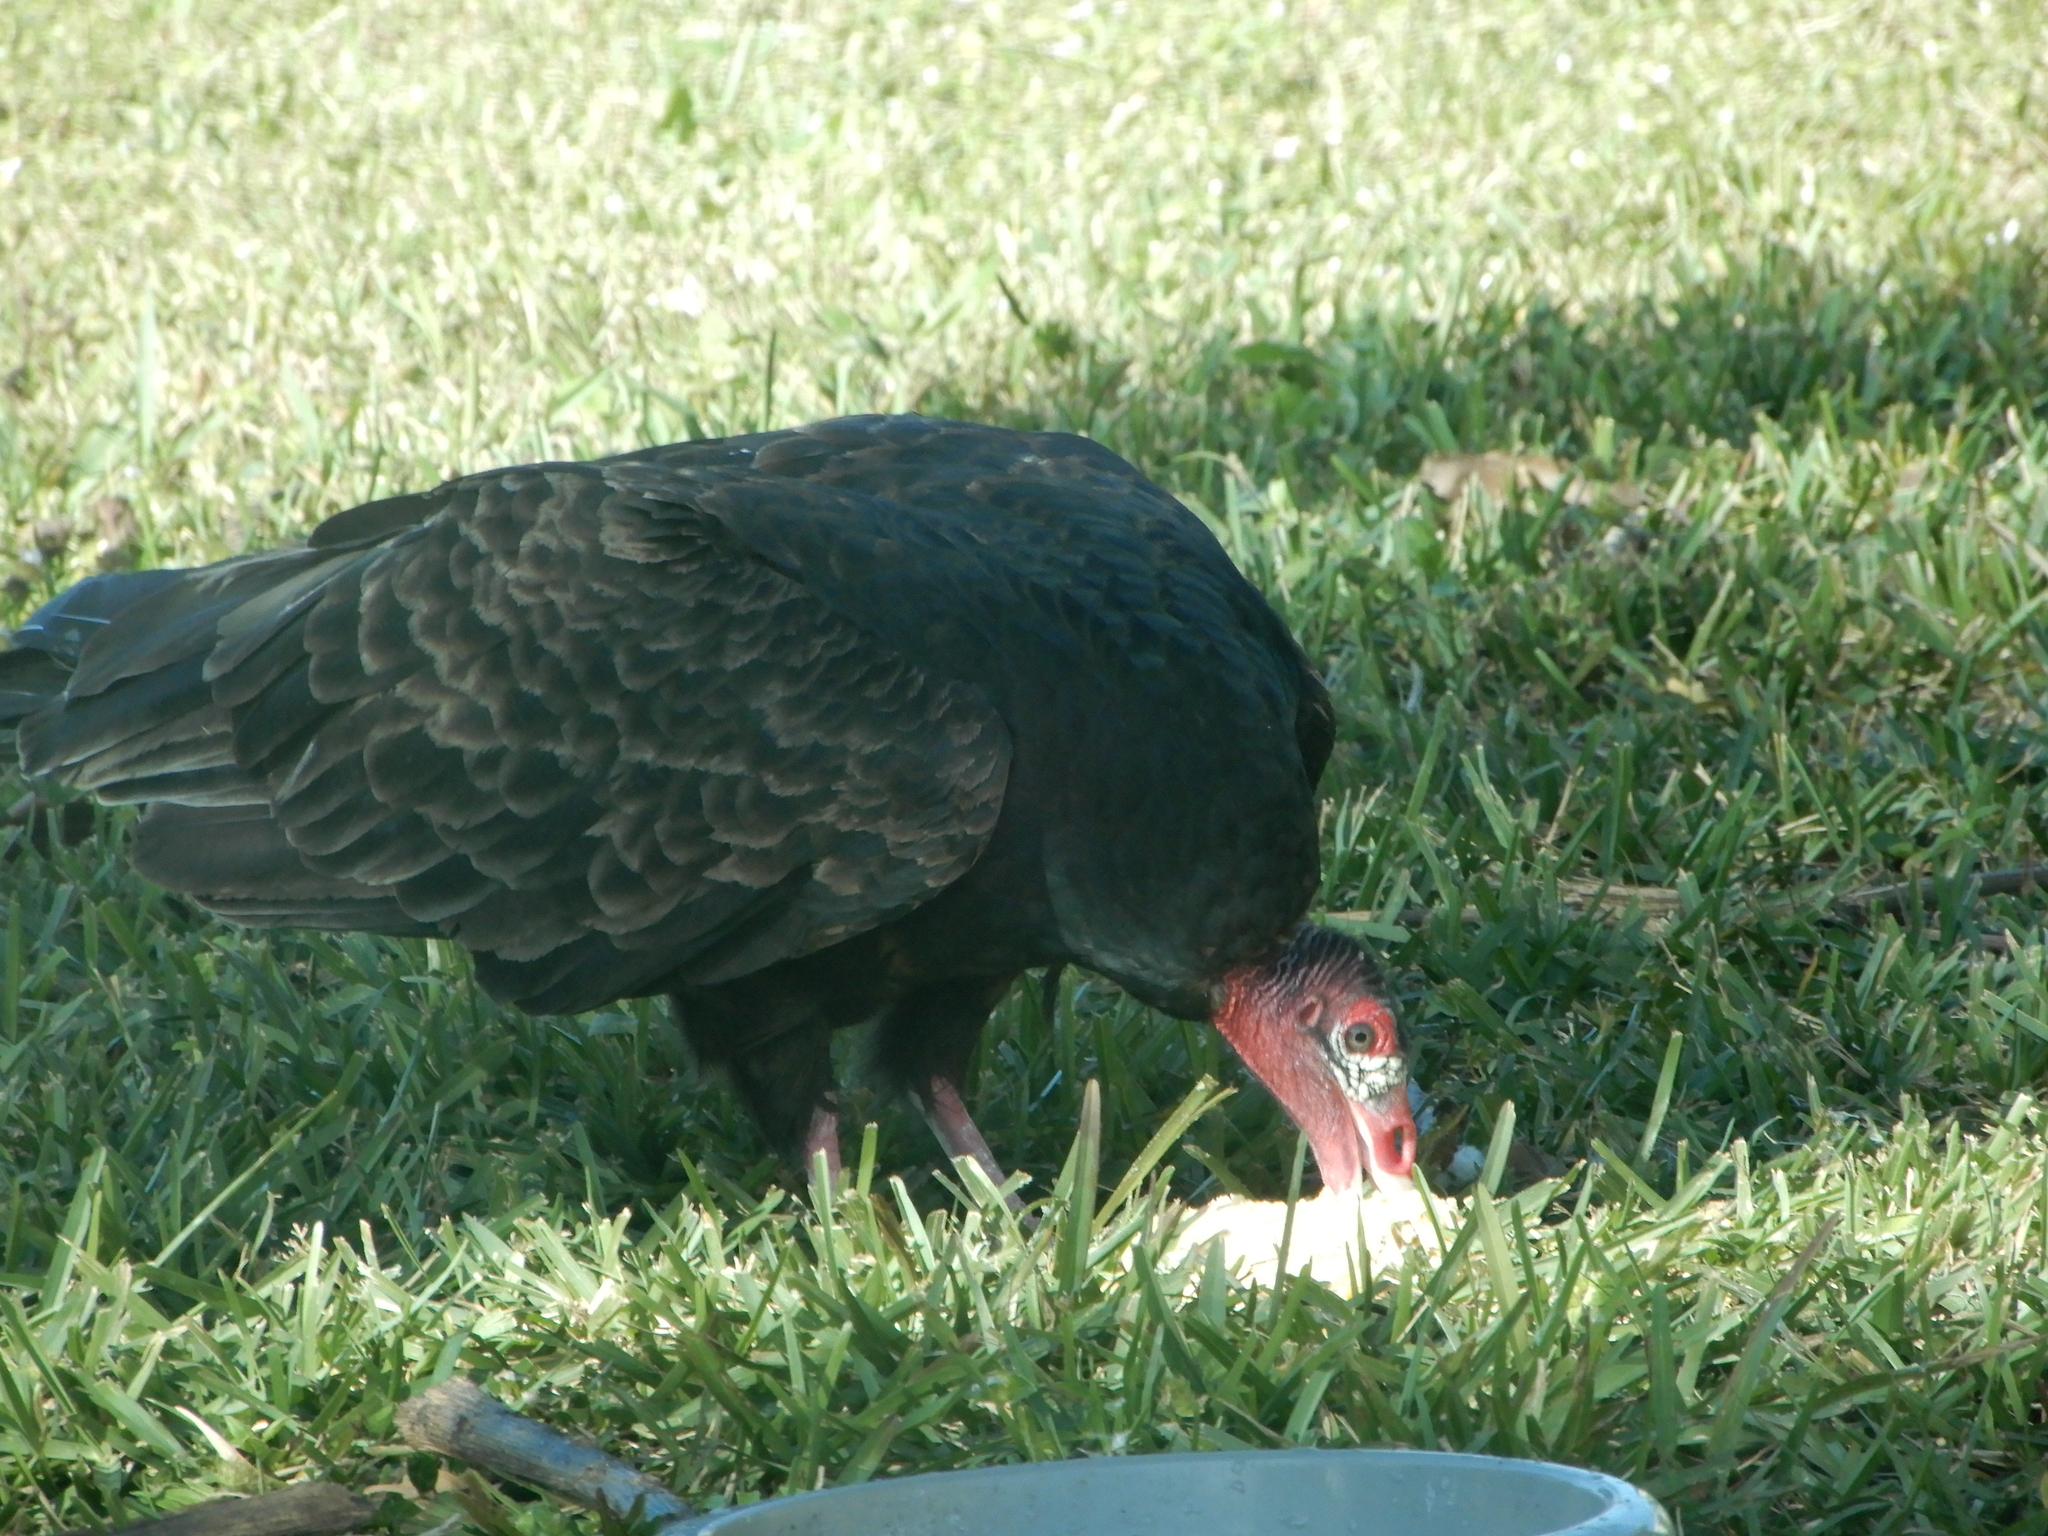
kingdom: Animalia
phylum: Chordata
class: Aves
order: Accipitriformes
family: Cathartidae
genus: Cathartes
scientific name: Cathartes aura
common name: Turkey vulture
